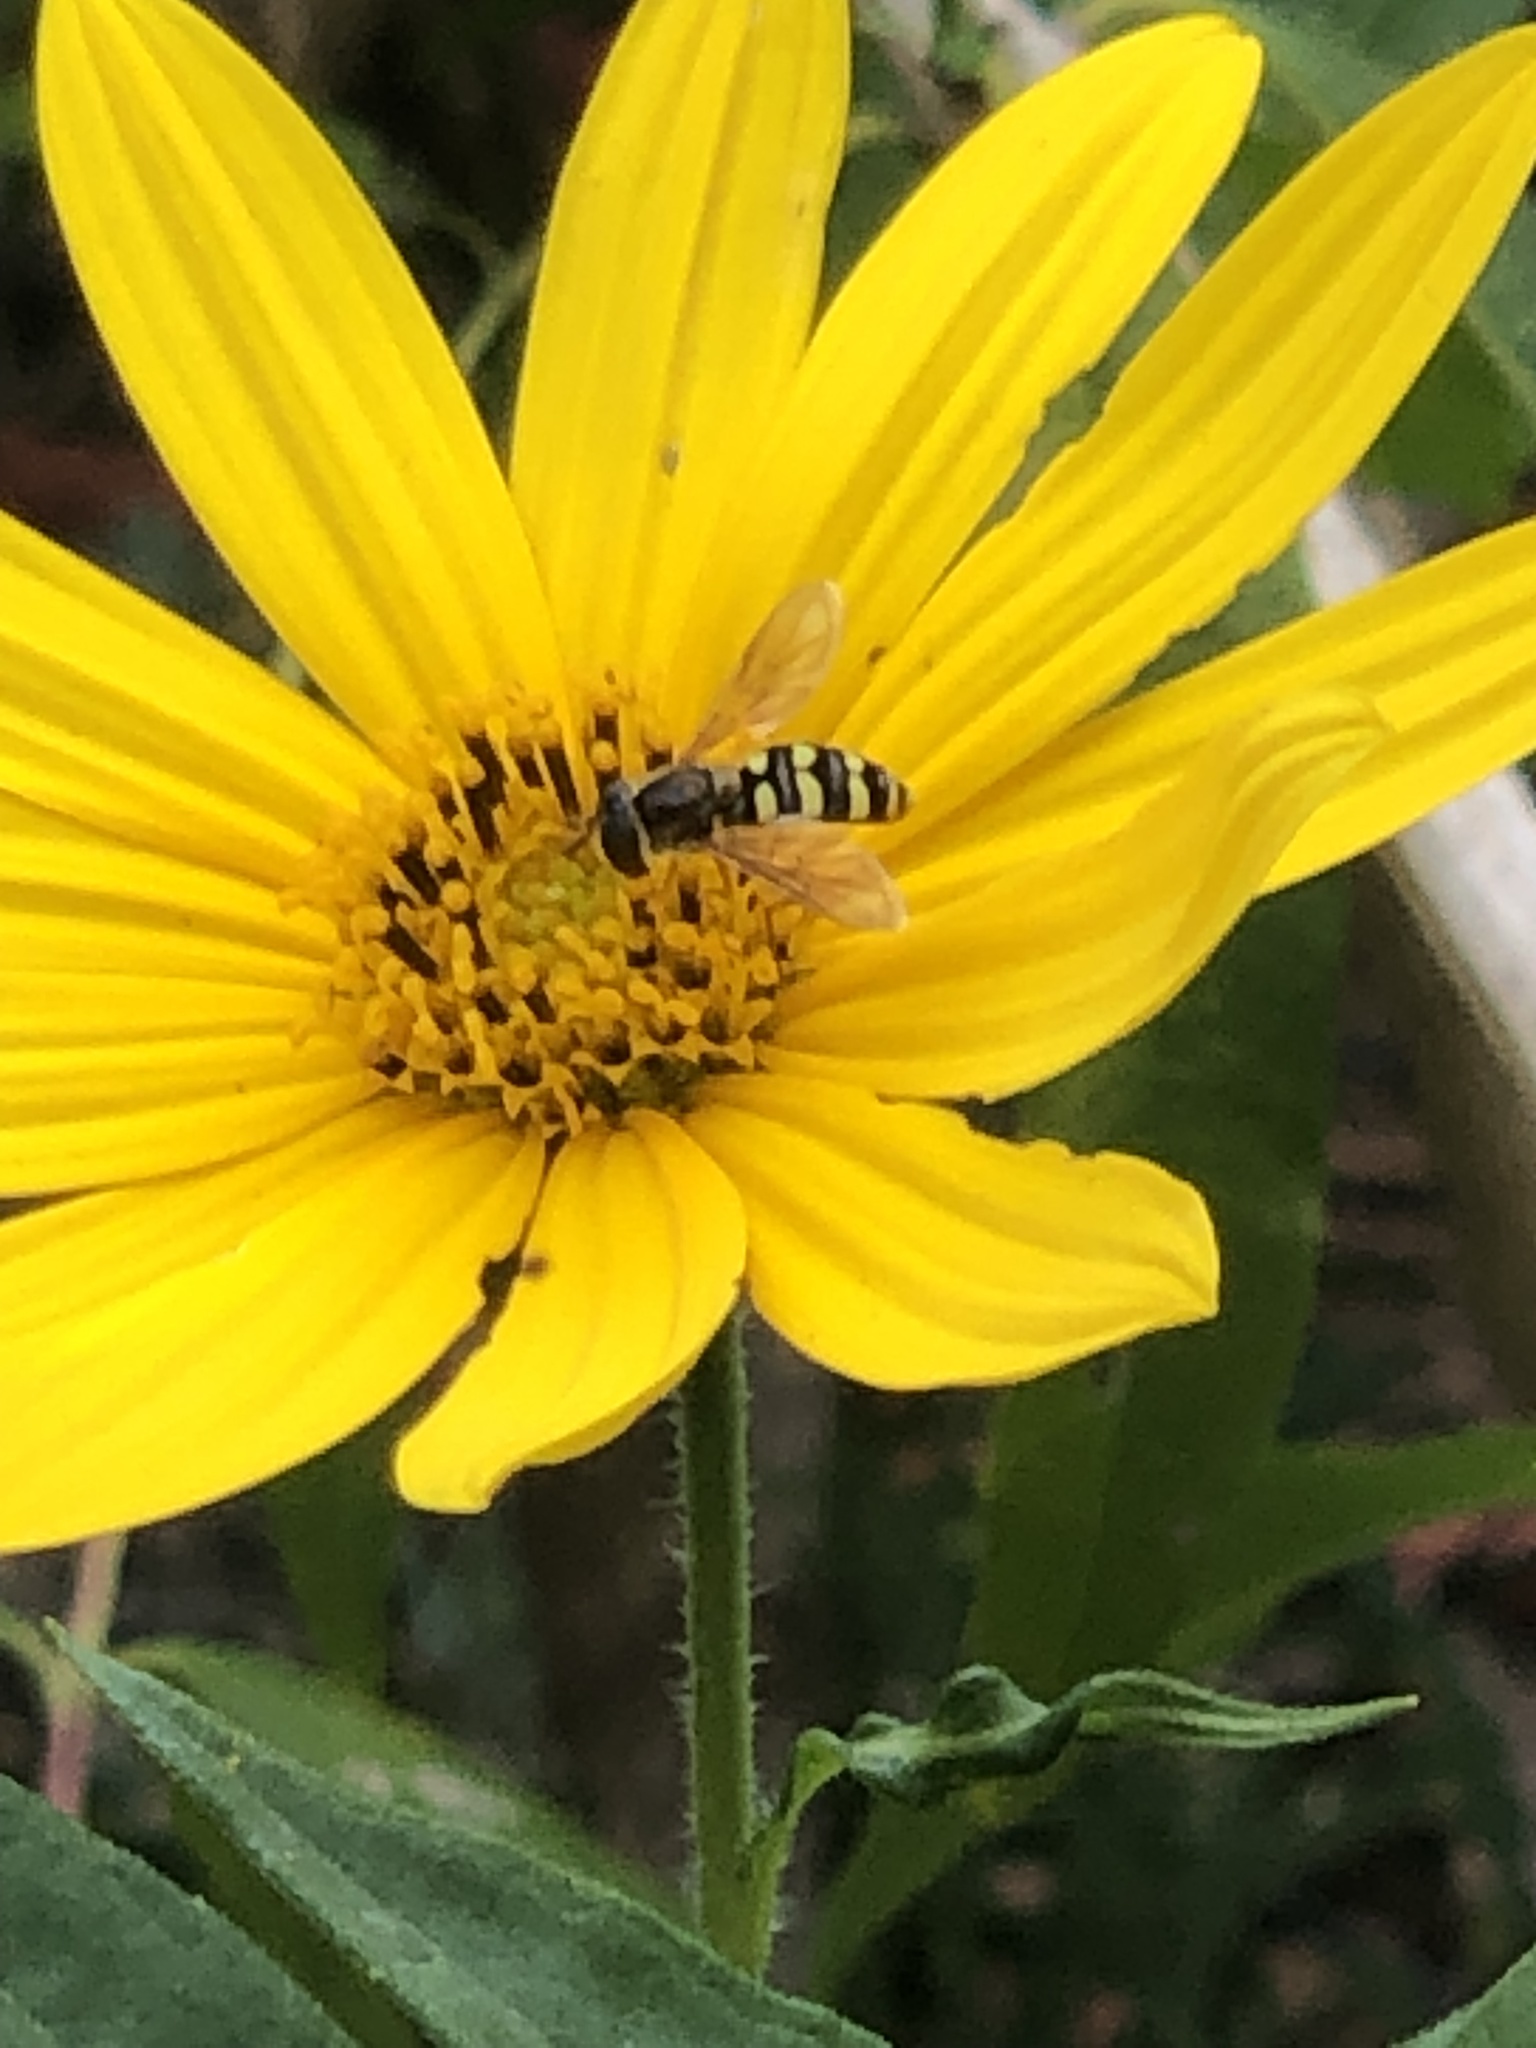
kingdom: Animalia
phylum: Arthropoda
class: Insecta
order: Diptera
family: Syrphidae
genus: Eupeodes
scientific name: Eupeodes fumipennis
